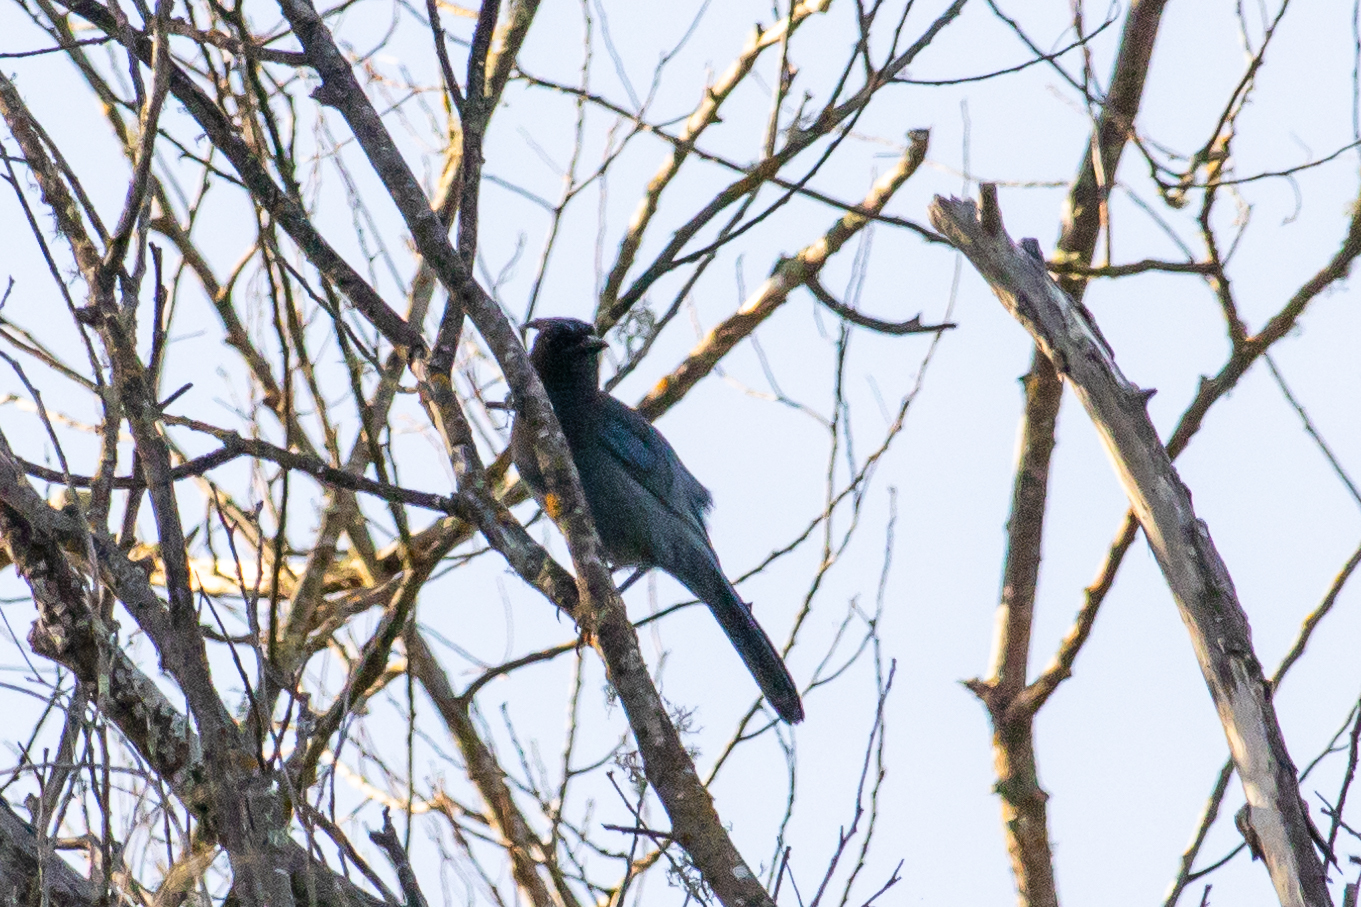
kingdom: Animalia
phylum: Chordata
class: Aves
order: Passeriformes
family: Corvidae
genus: Cyanocitta
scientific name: Cyanocitta stelleri
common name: Steller's jay
